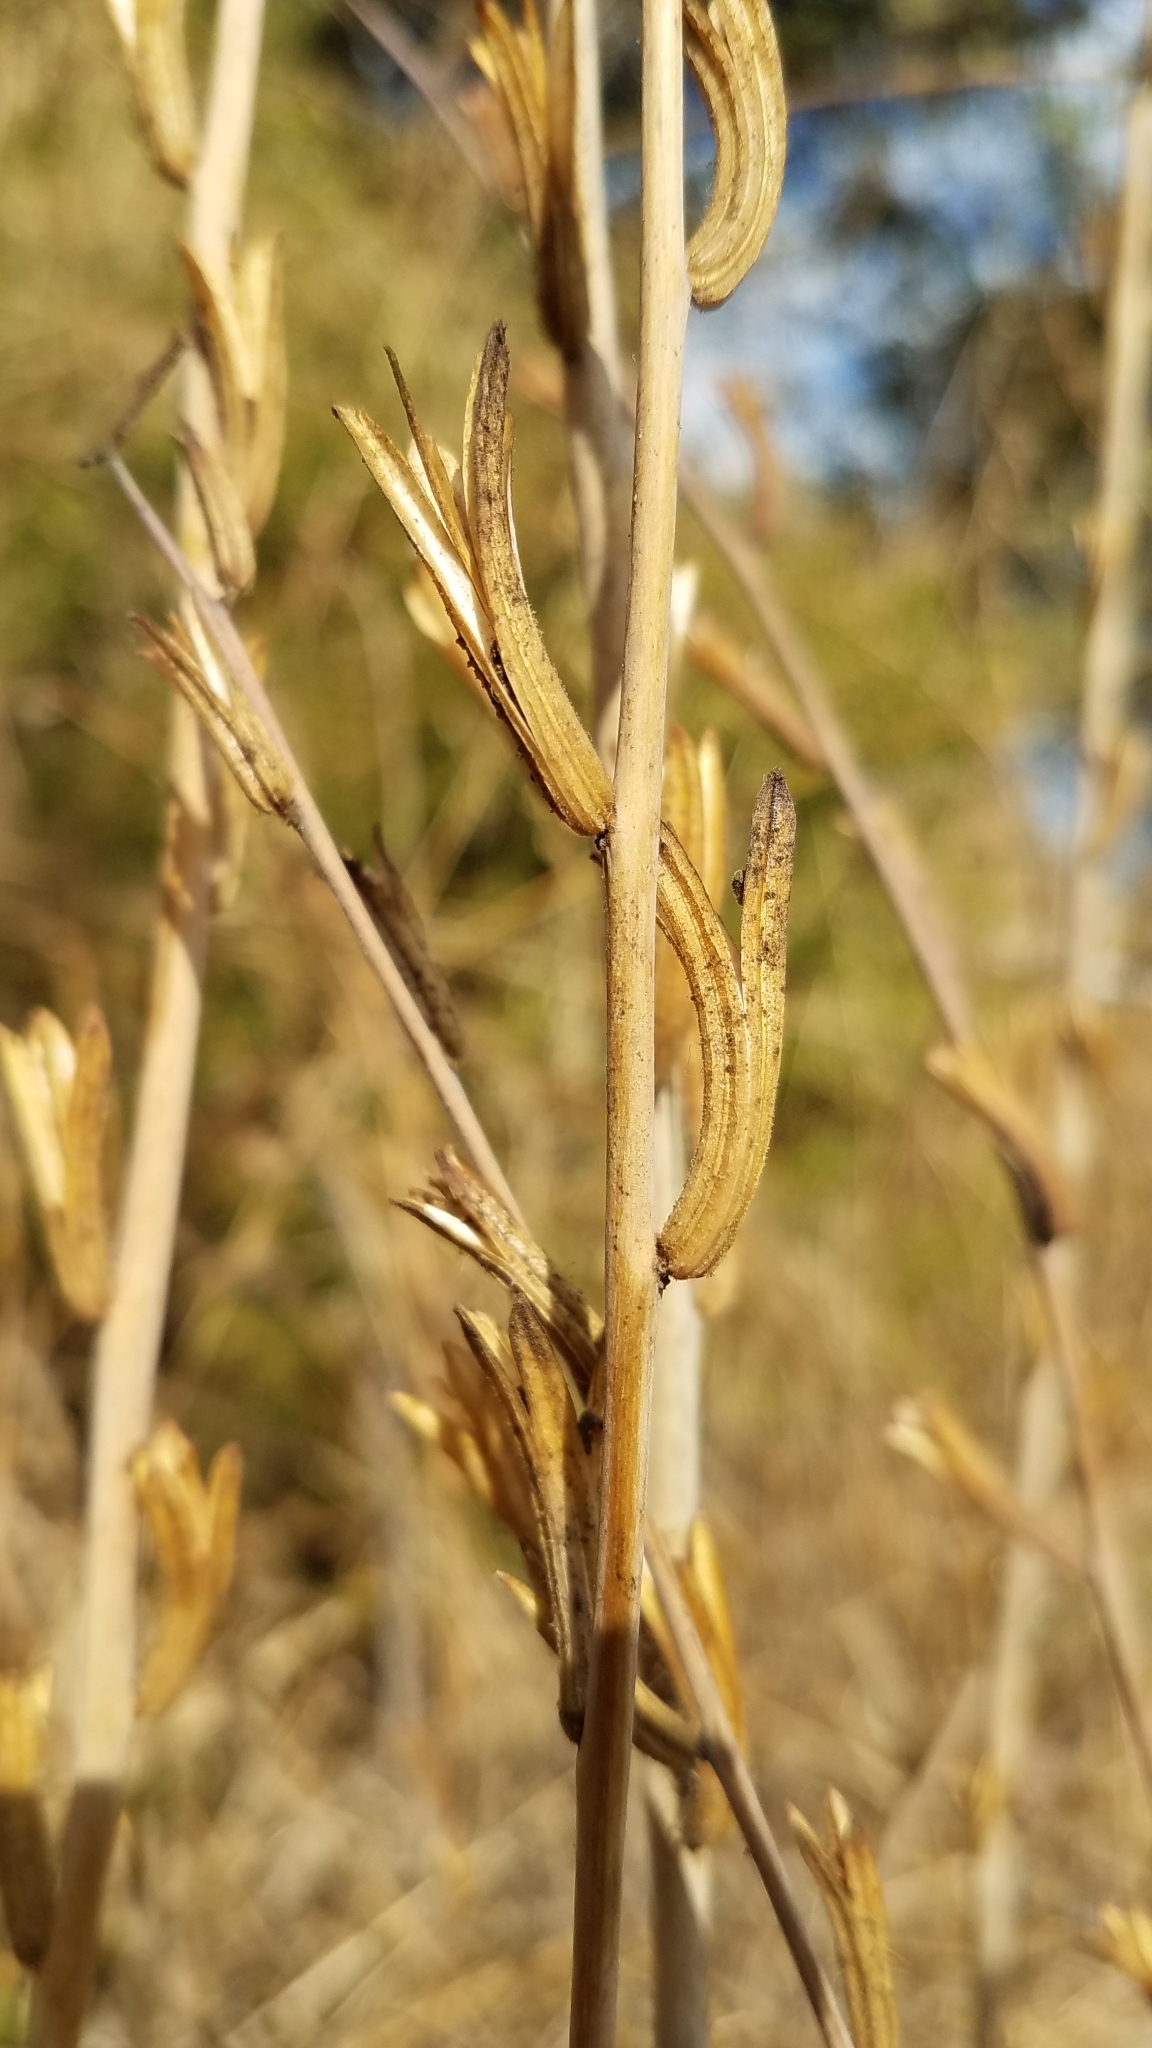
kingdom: Plantae
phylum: Tracheophyta
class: Magnoliopsida
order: Myrtales
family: Onagraceae
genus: Clarkia
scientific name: Clarkia unguiculata
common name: Clarkia
